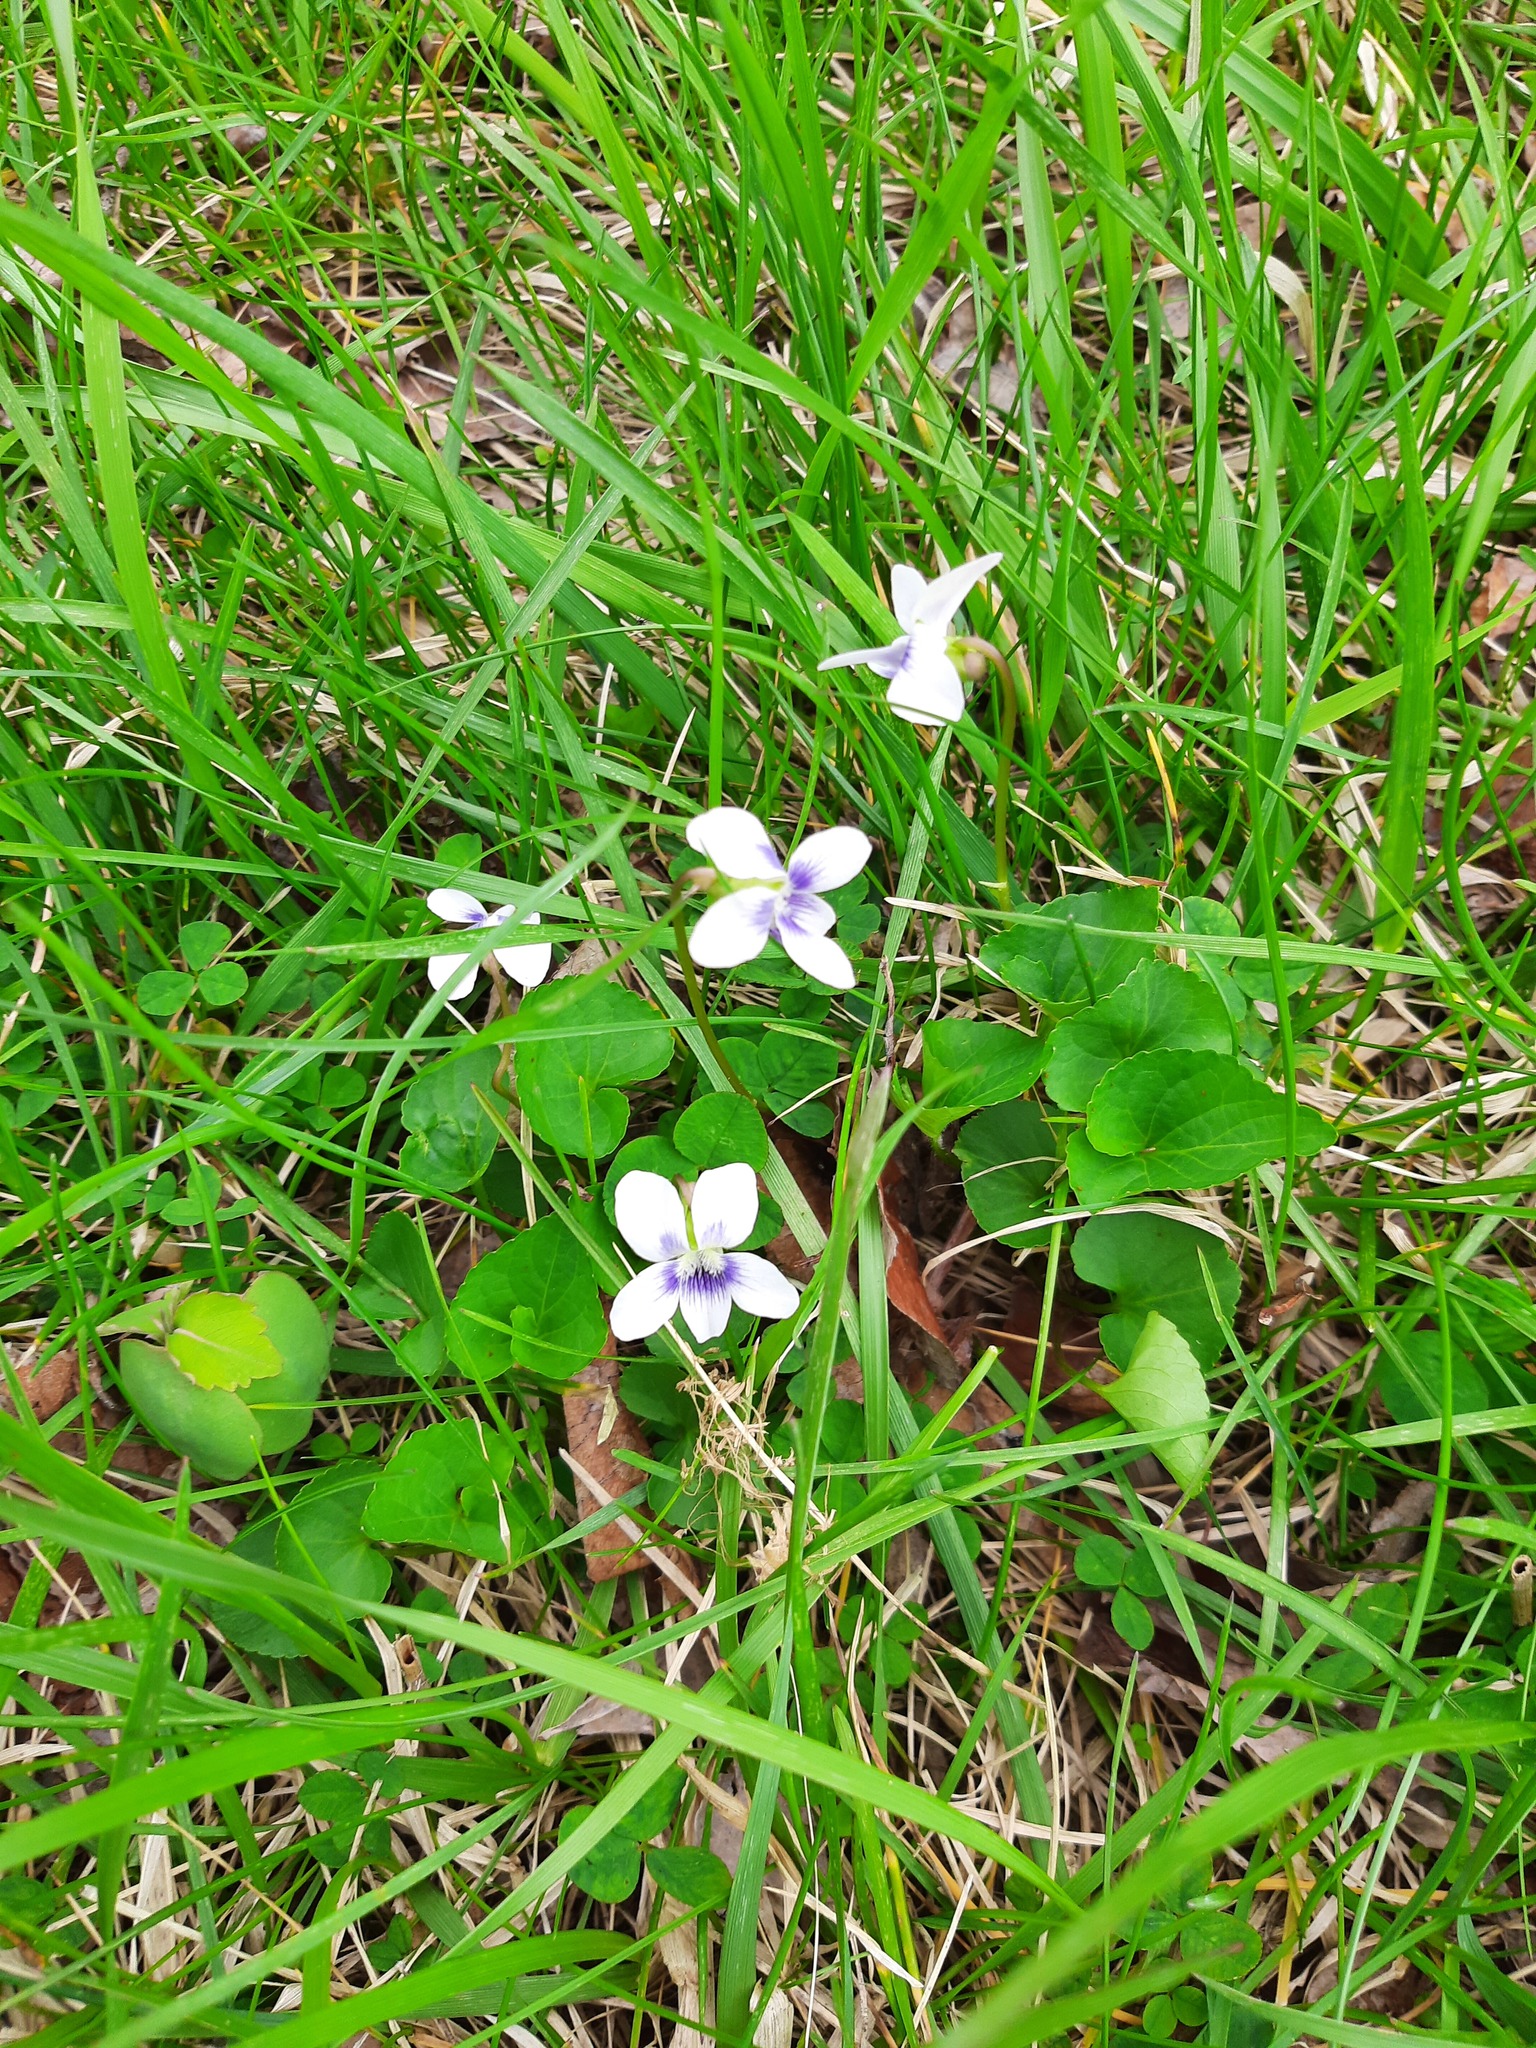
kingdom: Plantae
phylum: Tracheophyta
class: Magnoliopsida
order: Malpighiales
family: Violaceae
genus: Viola
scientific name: Viola sororia
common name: Dooryard violet
